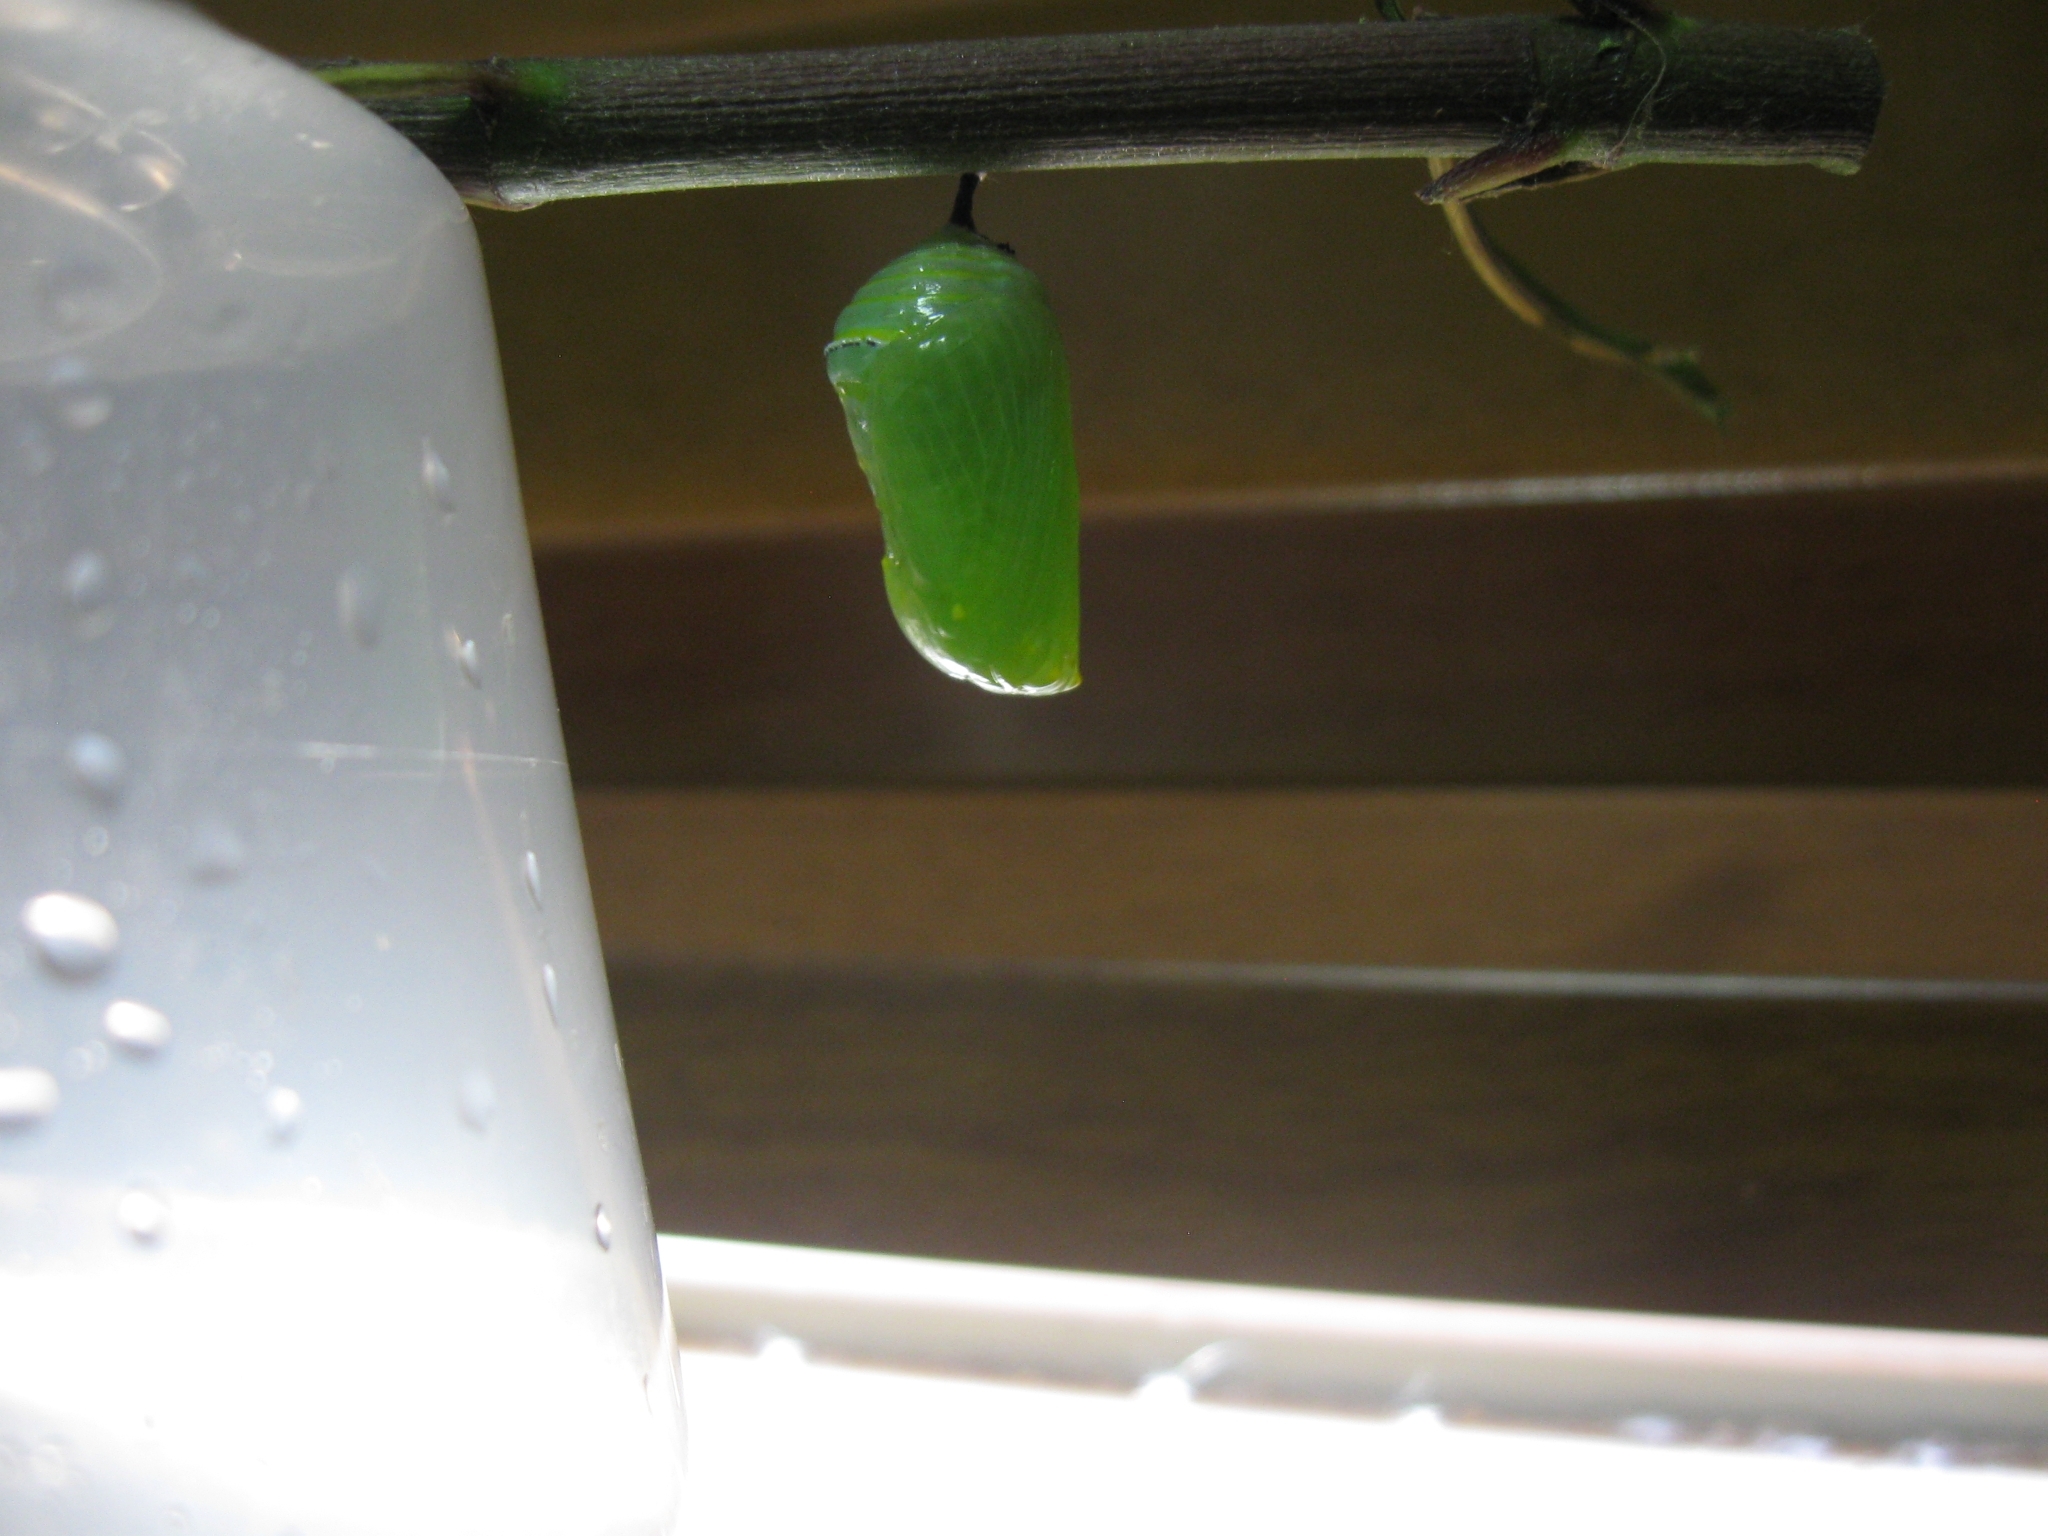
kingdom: Animalia
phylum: Arthropoda
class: Insecta
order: Lepidoptera
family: Nymphalidae
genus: Danaus
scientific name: Danaus plexippus
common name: Monarch
